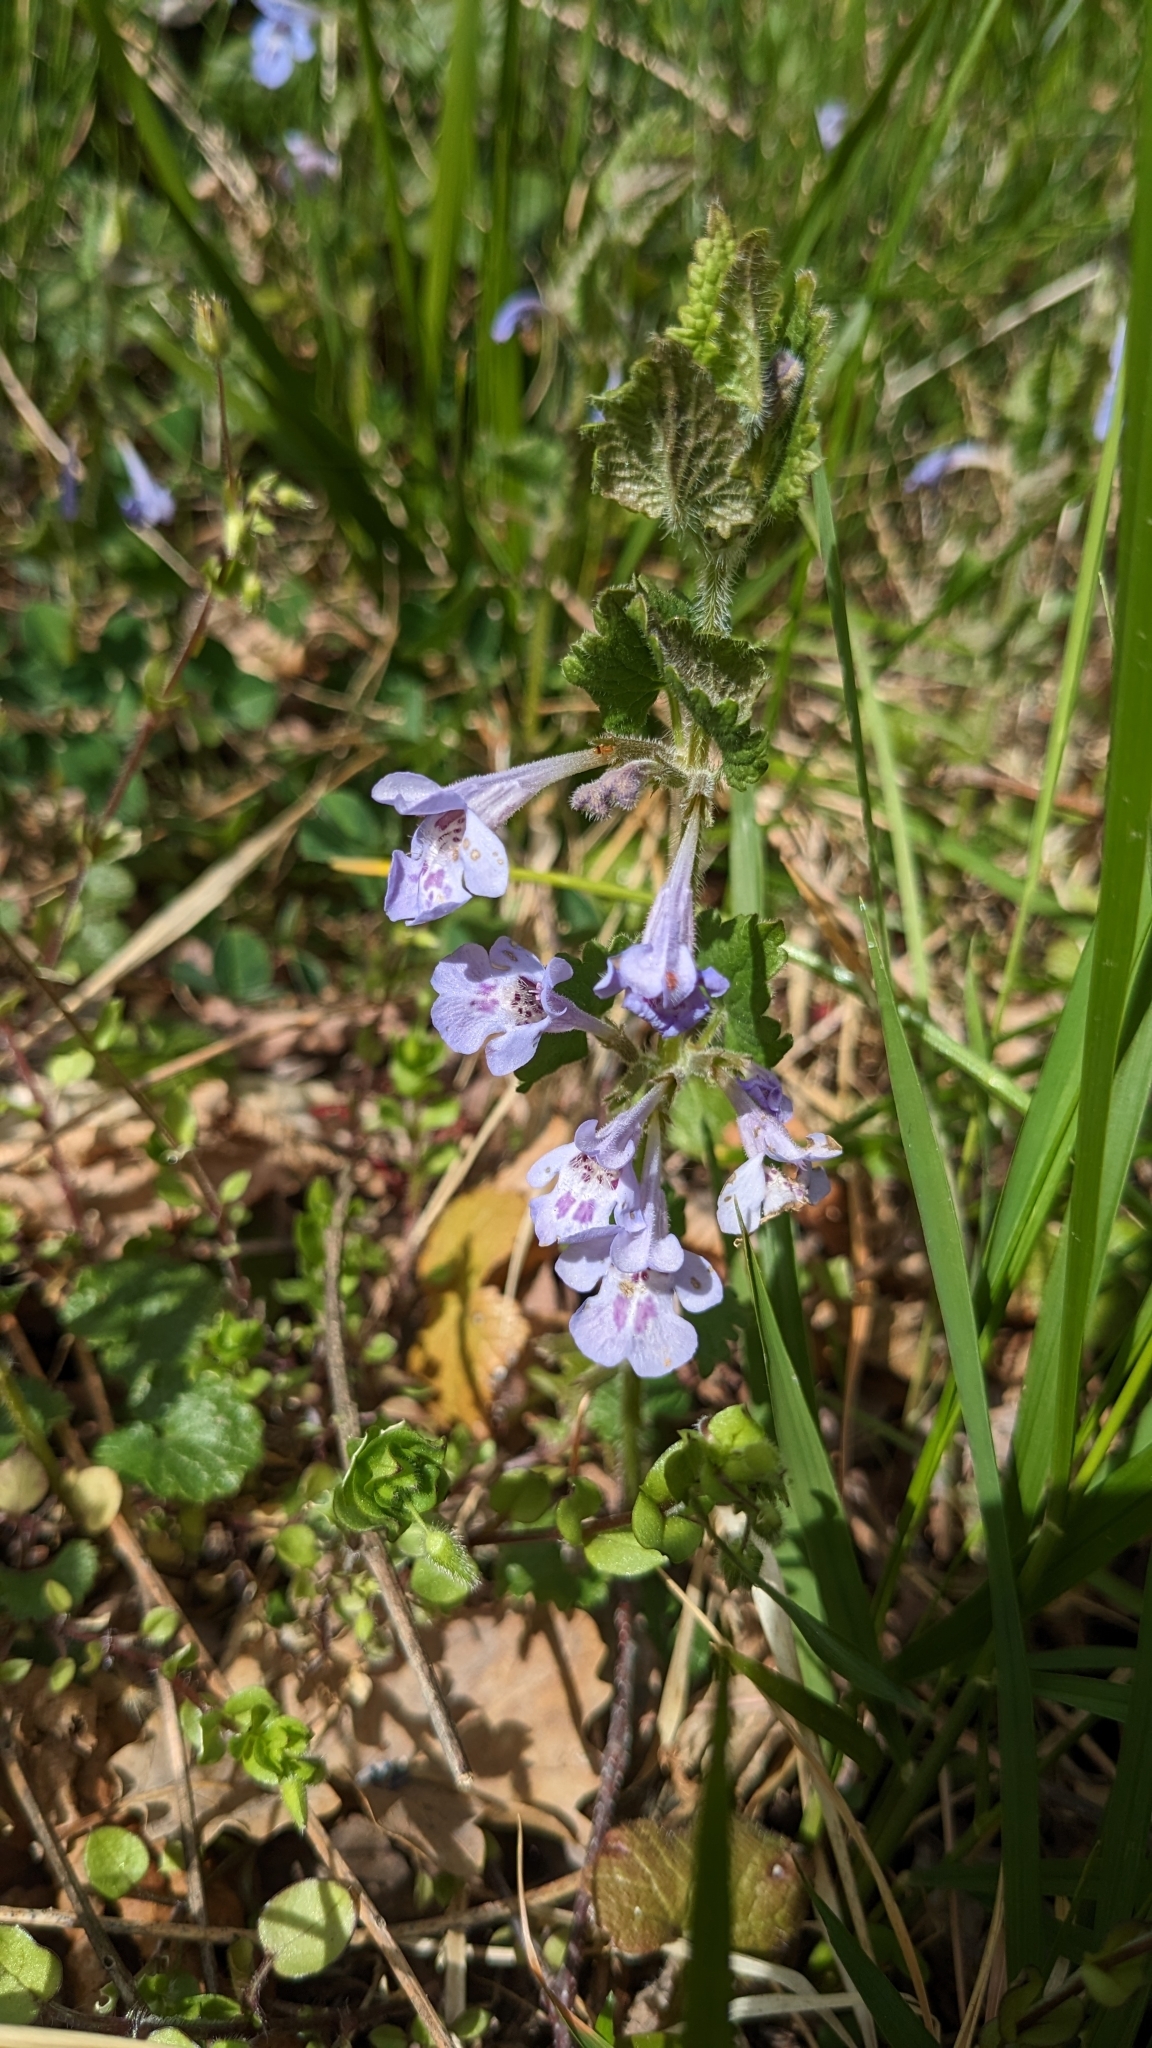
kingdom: Plantae
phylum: Tracheophyta
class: Magnoliopsida
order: Lamiales
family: Lamiaceae
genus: Glechoma
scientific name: Glechoma hederacea
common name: Ground ivy
